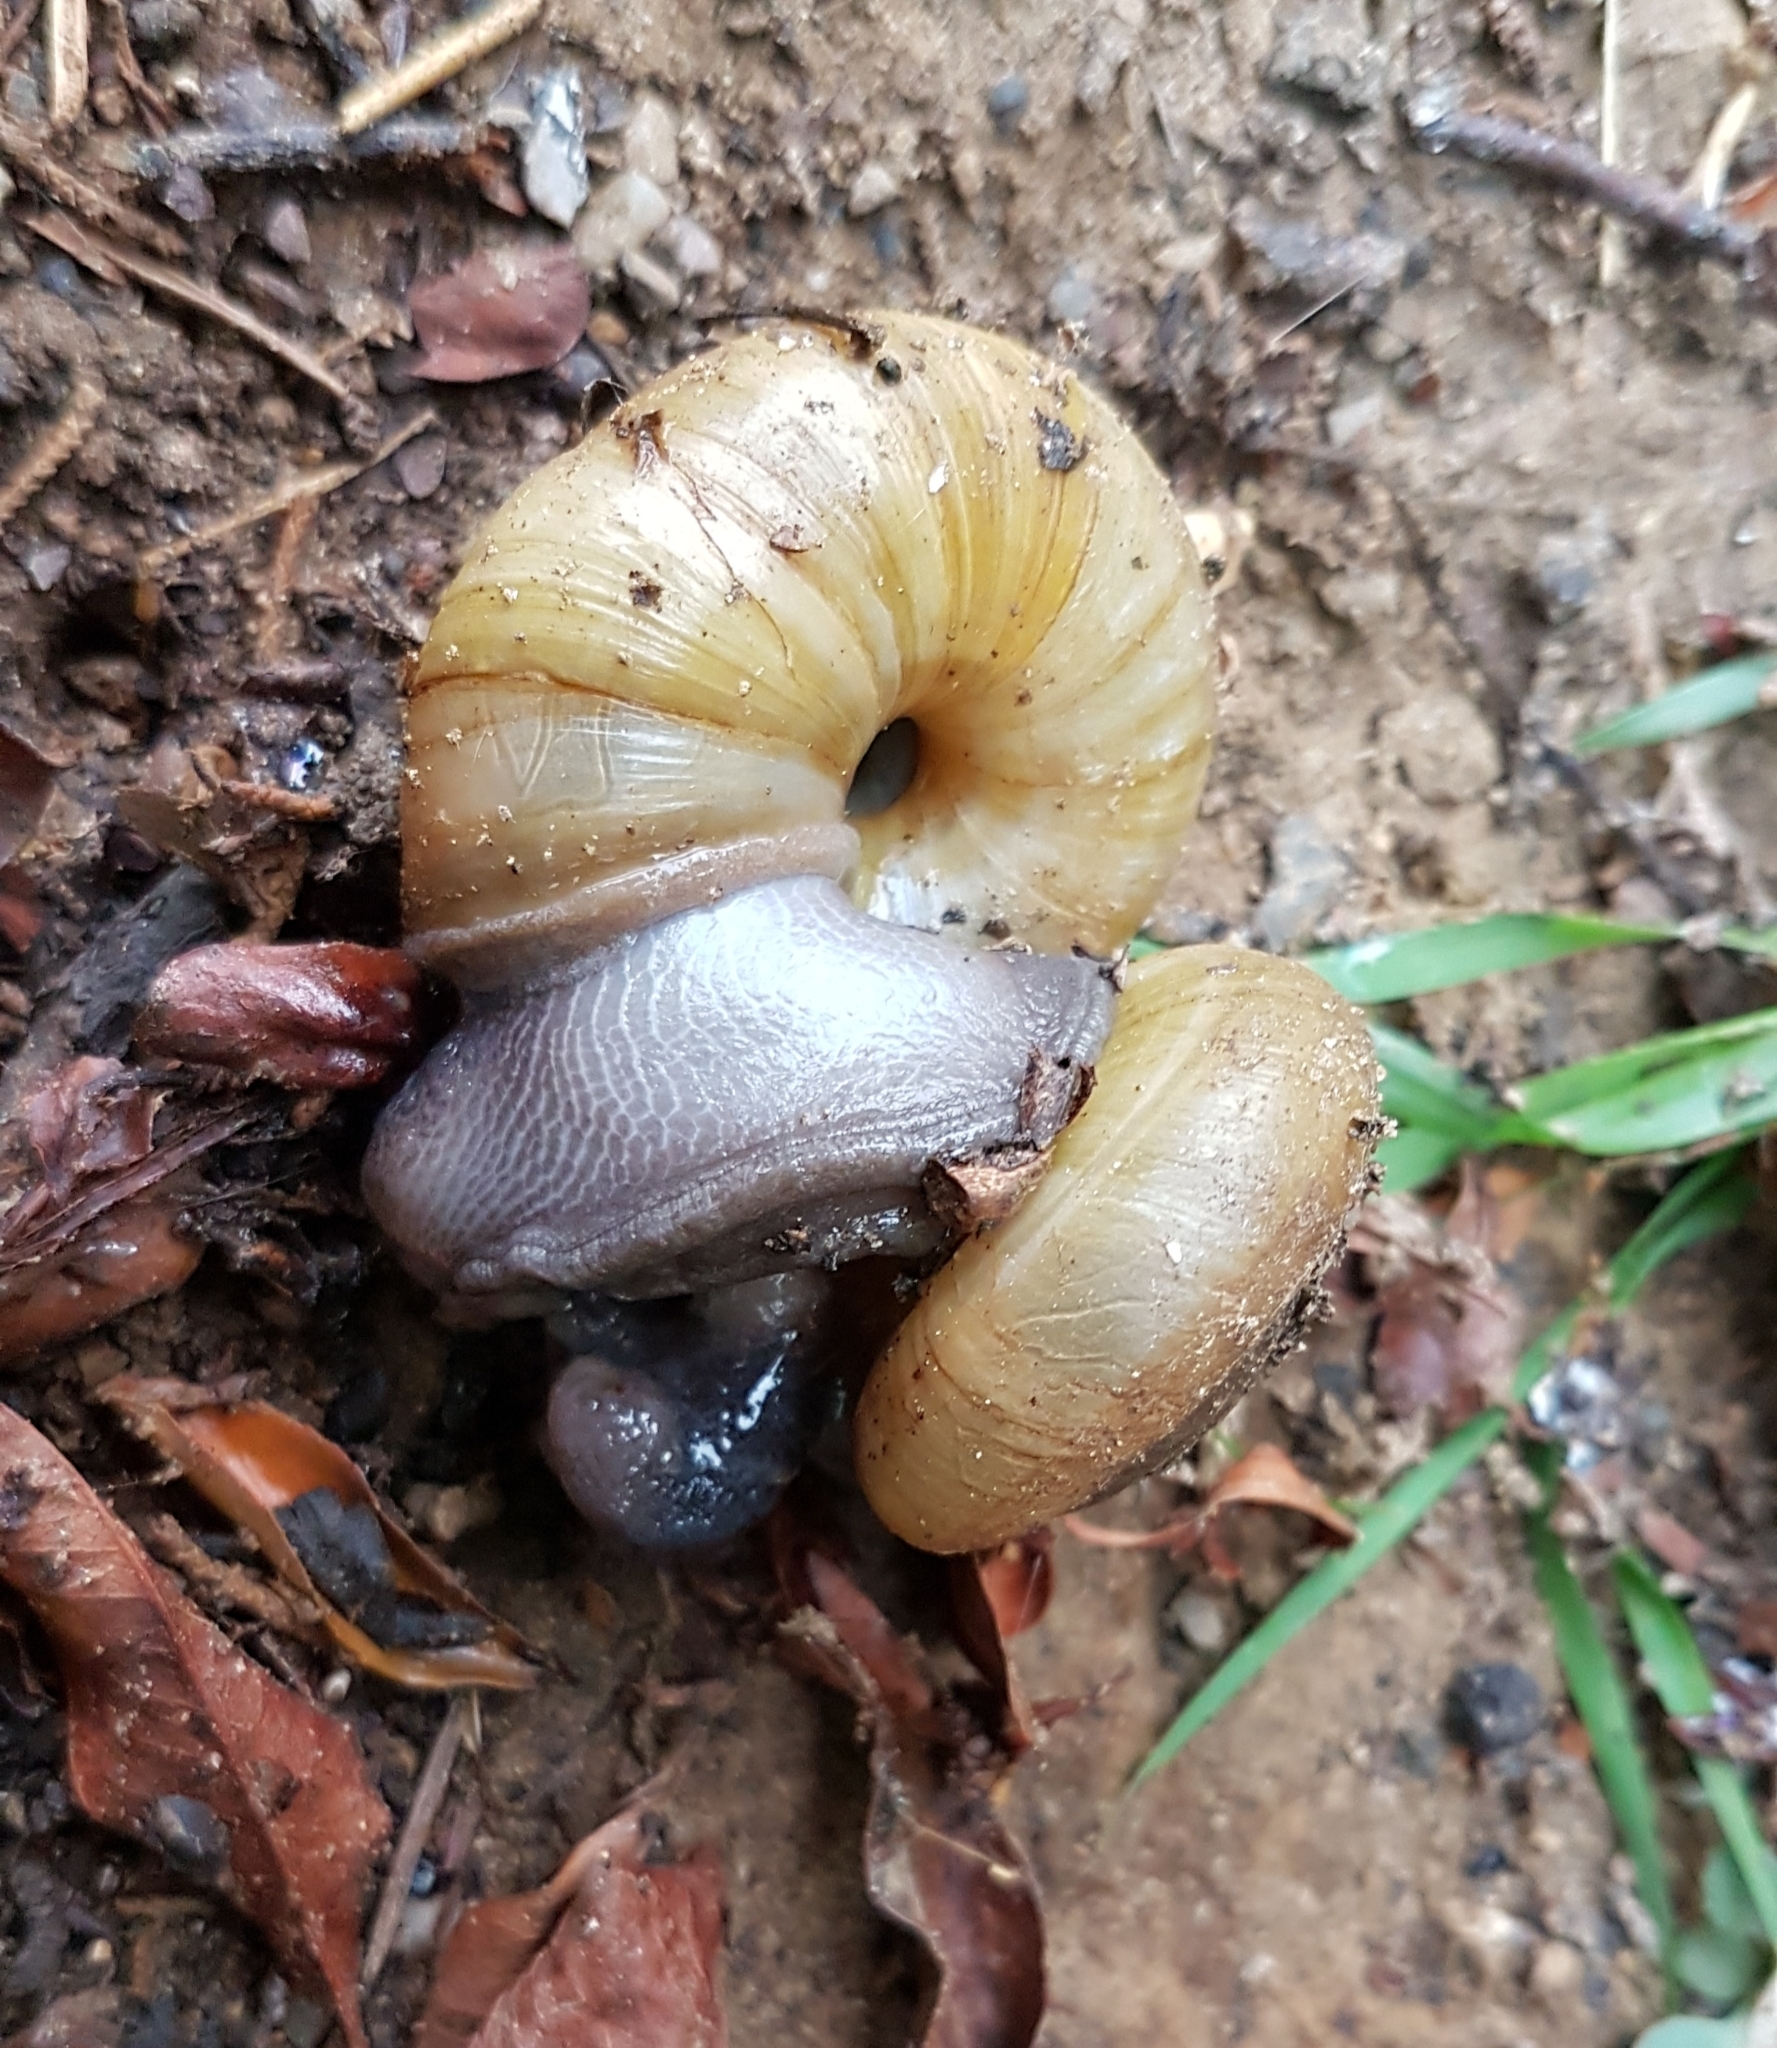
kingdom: Animalia
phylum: Mollusca
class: Gastropoda
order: Stylommatophora
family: Zonitidae
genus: Zonites
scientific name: Zonites algirus
